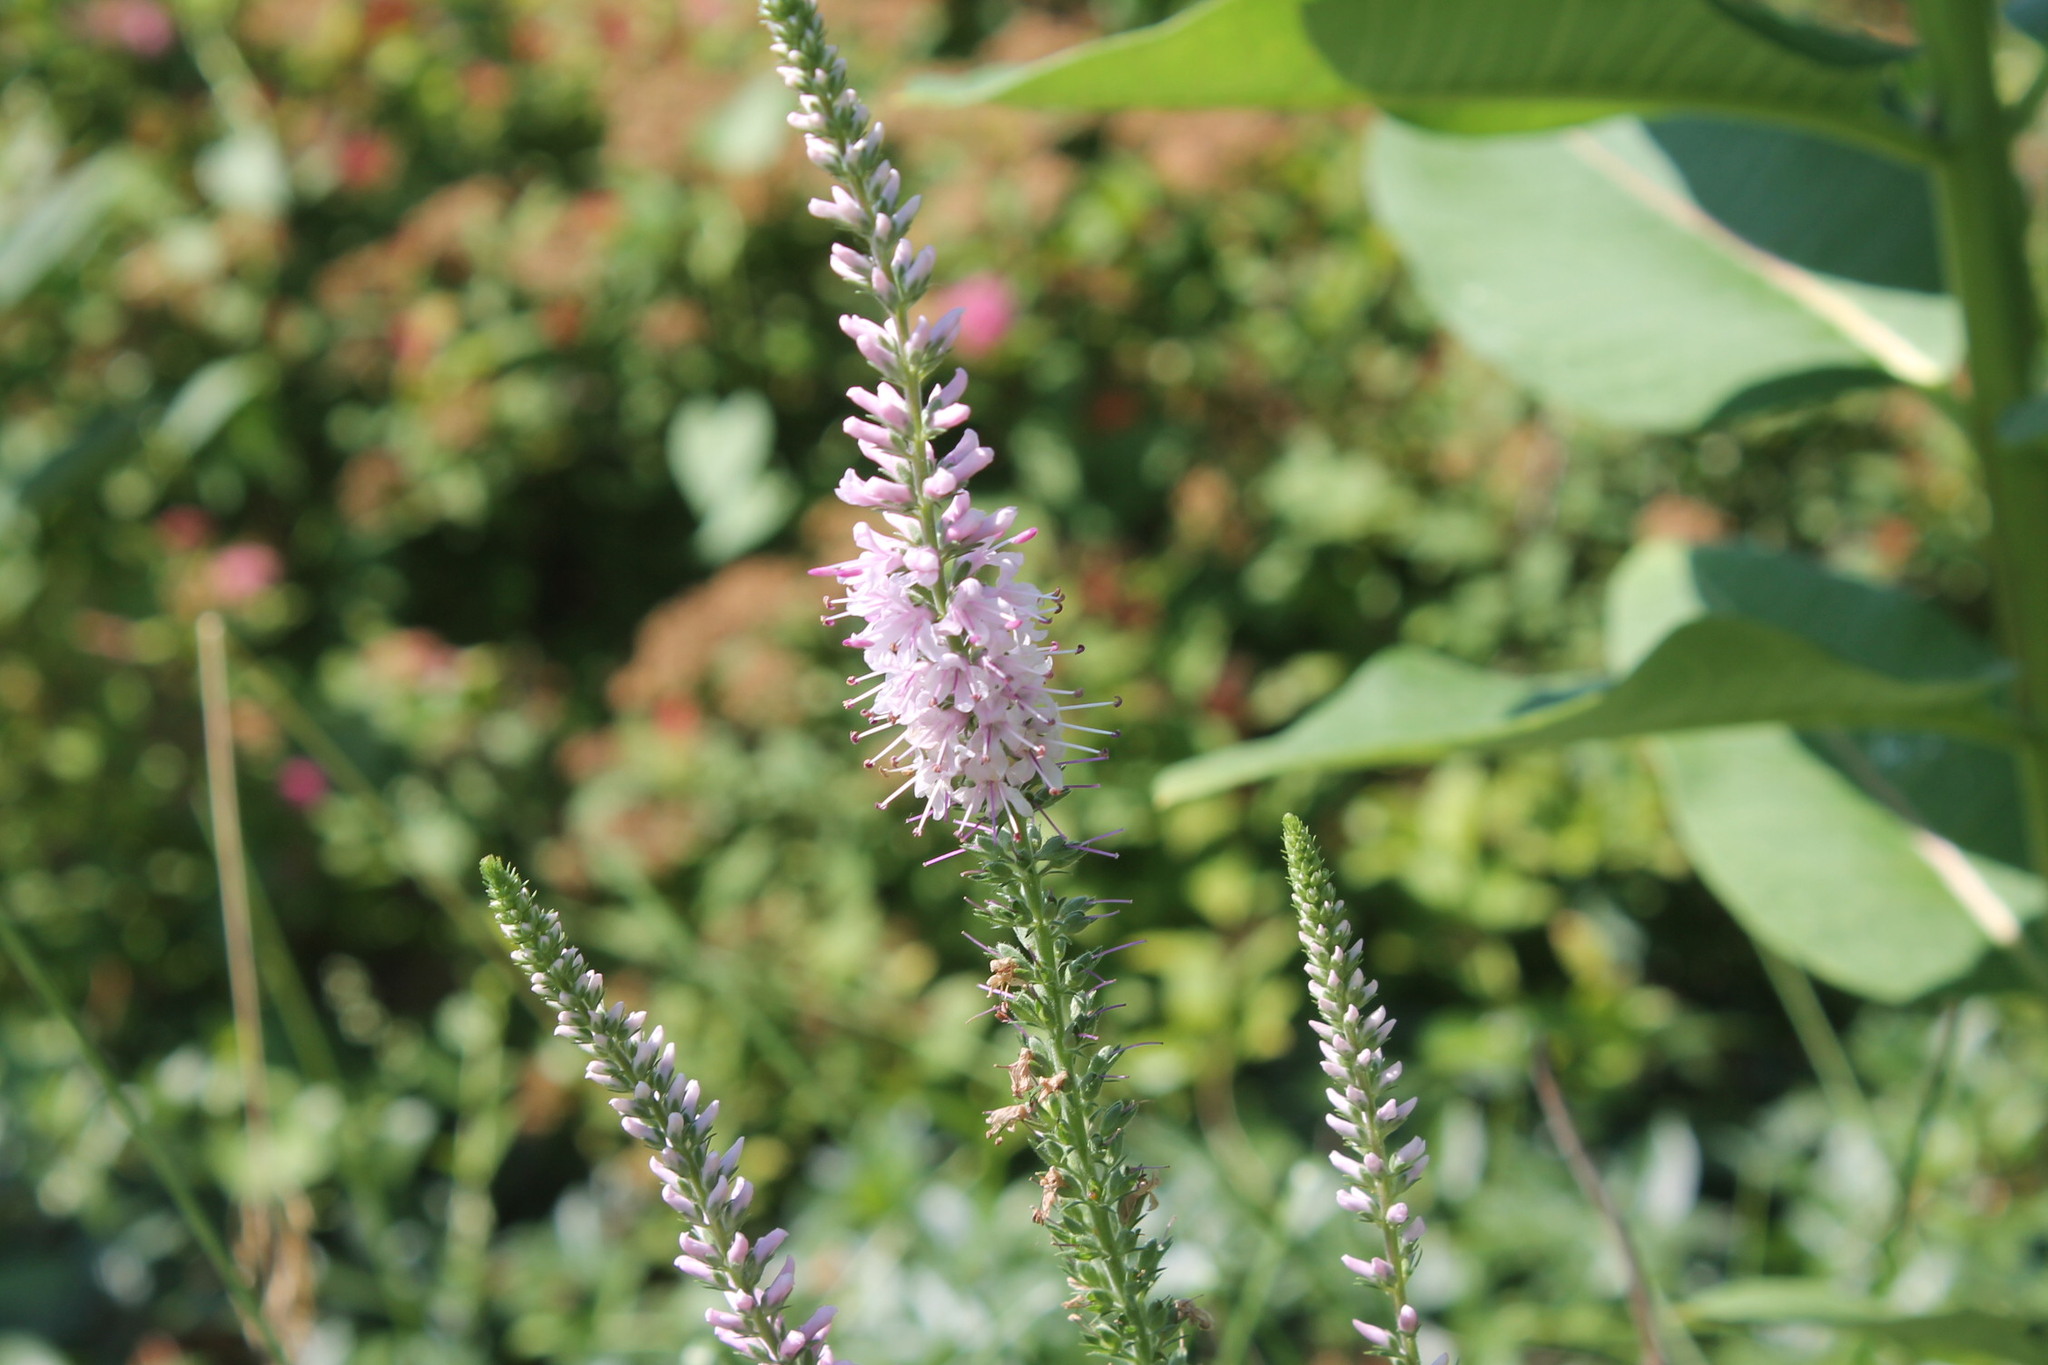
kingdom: Plantae
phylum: Tracheophyta
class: Magnoliopsida
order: Lamiales
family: Plantaginaceae
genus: Veronica
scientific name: Veronica longifolia
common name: Garden speedwell
